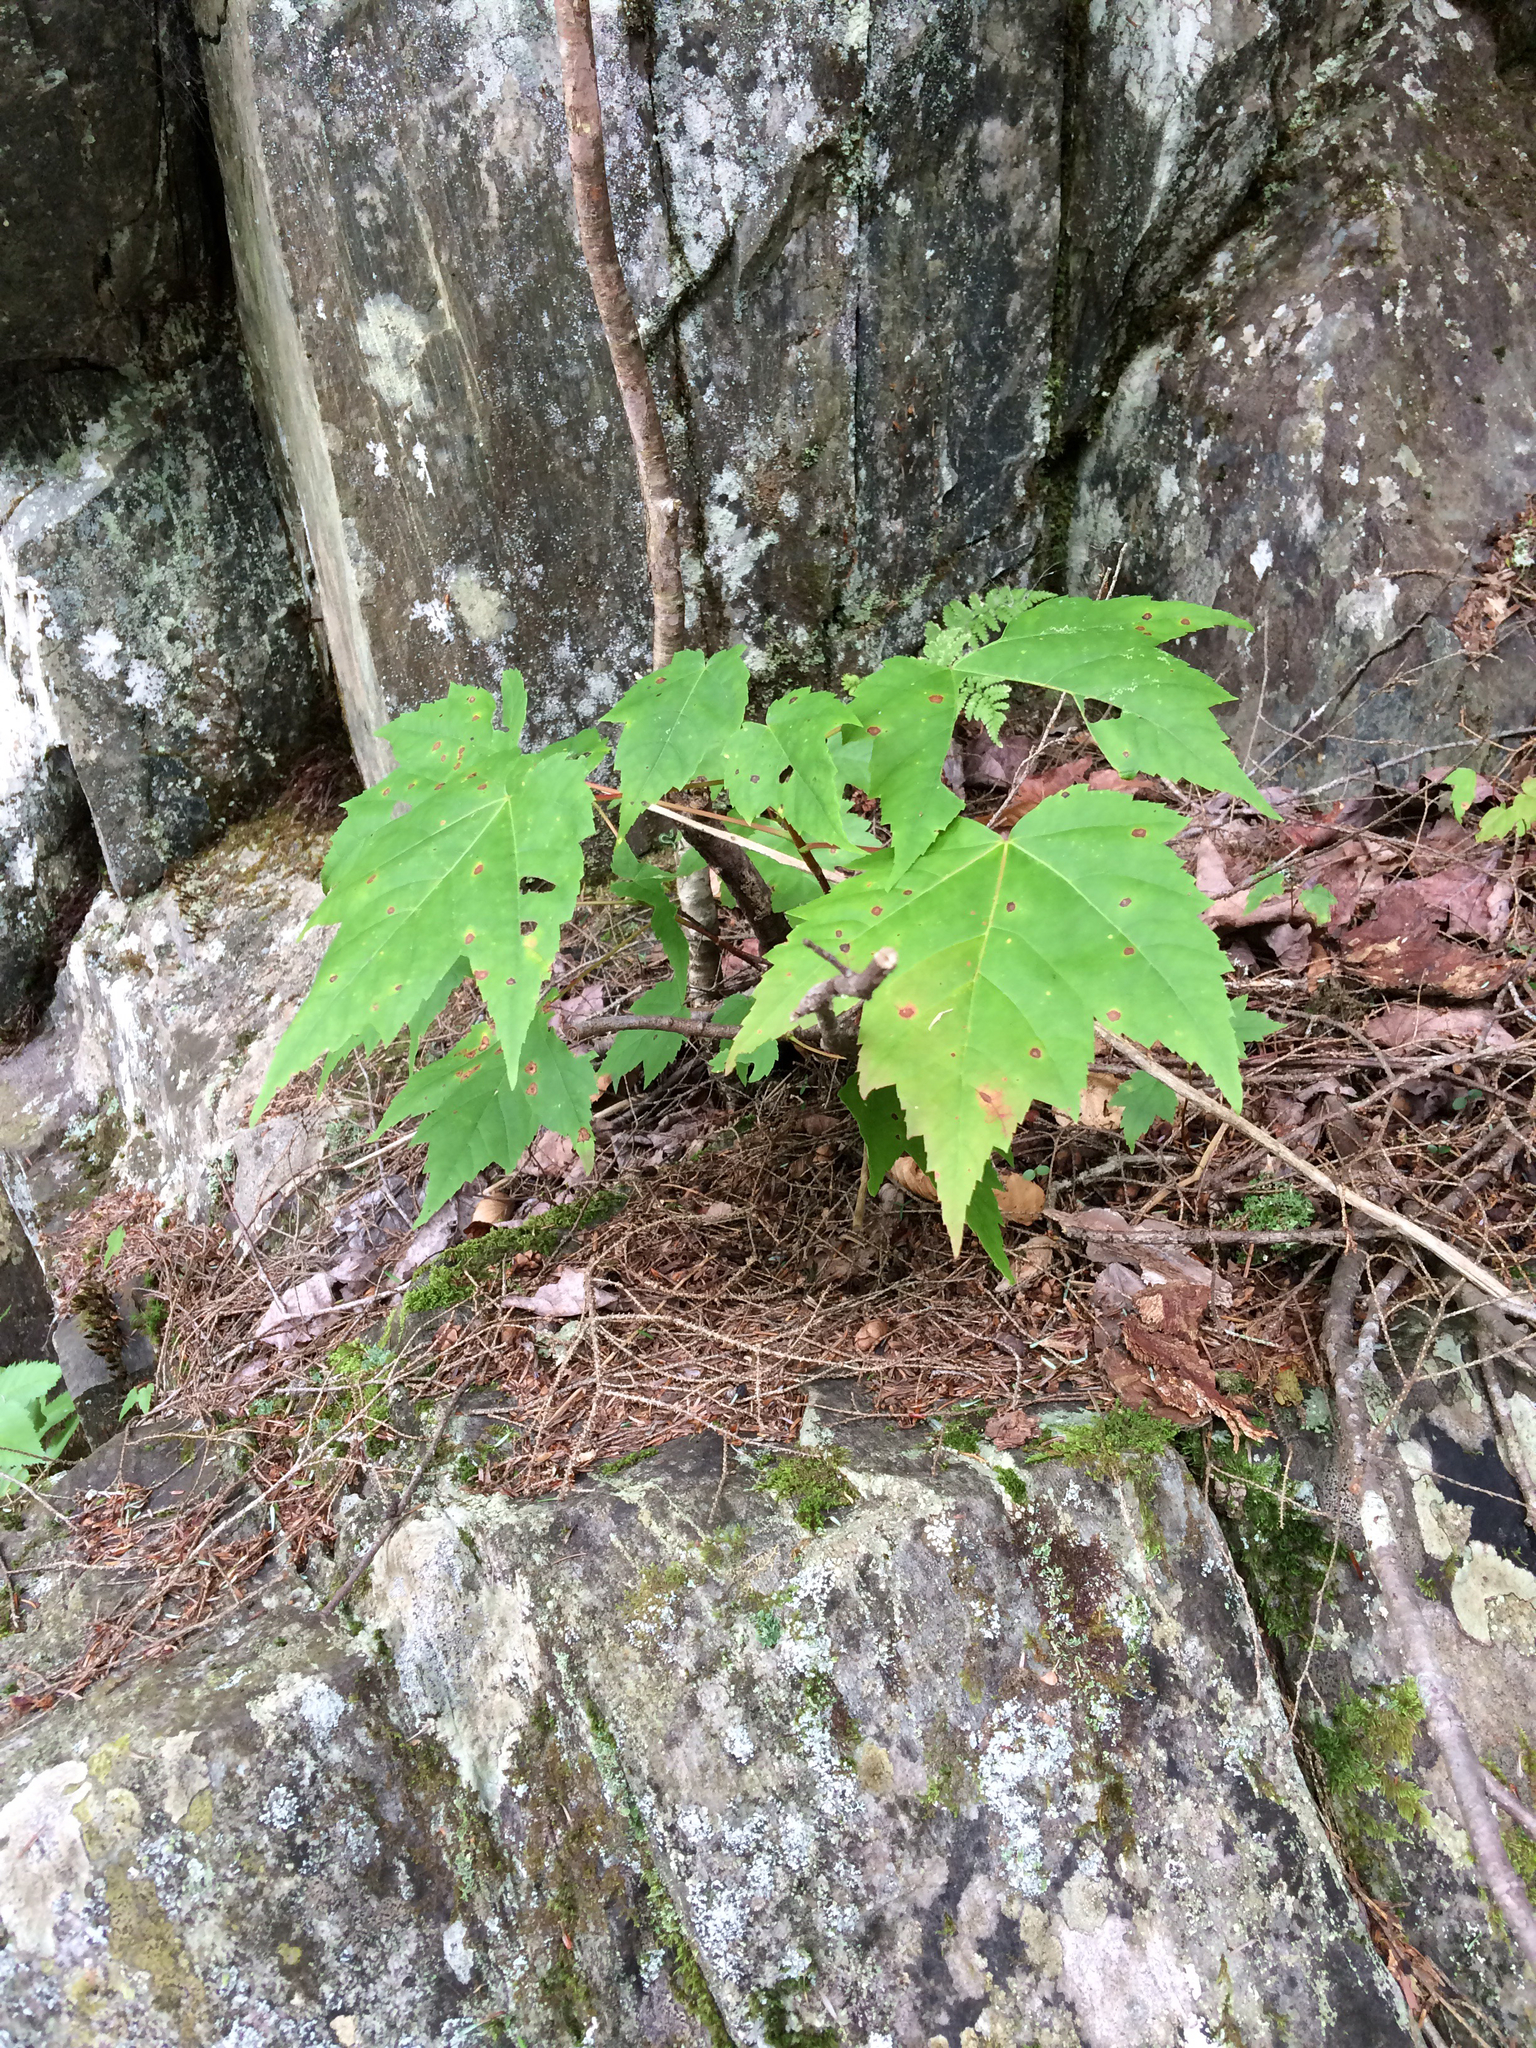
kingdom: Plantae
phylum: Tracheophyta
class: Magnoliopsida
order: Sapindales
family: Sapindaceae
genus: Acer
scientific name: Acer rubrum
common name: Red maple
